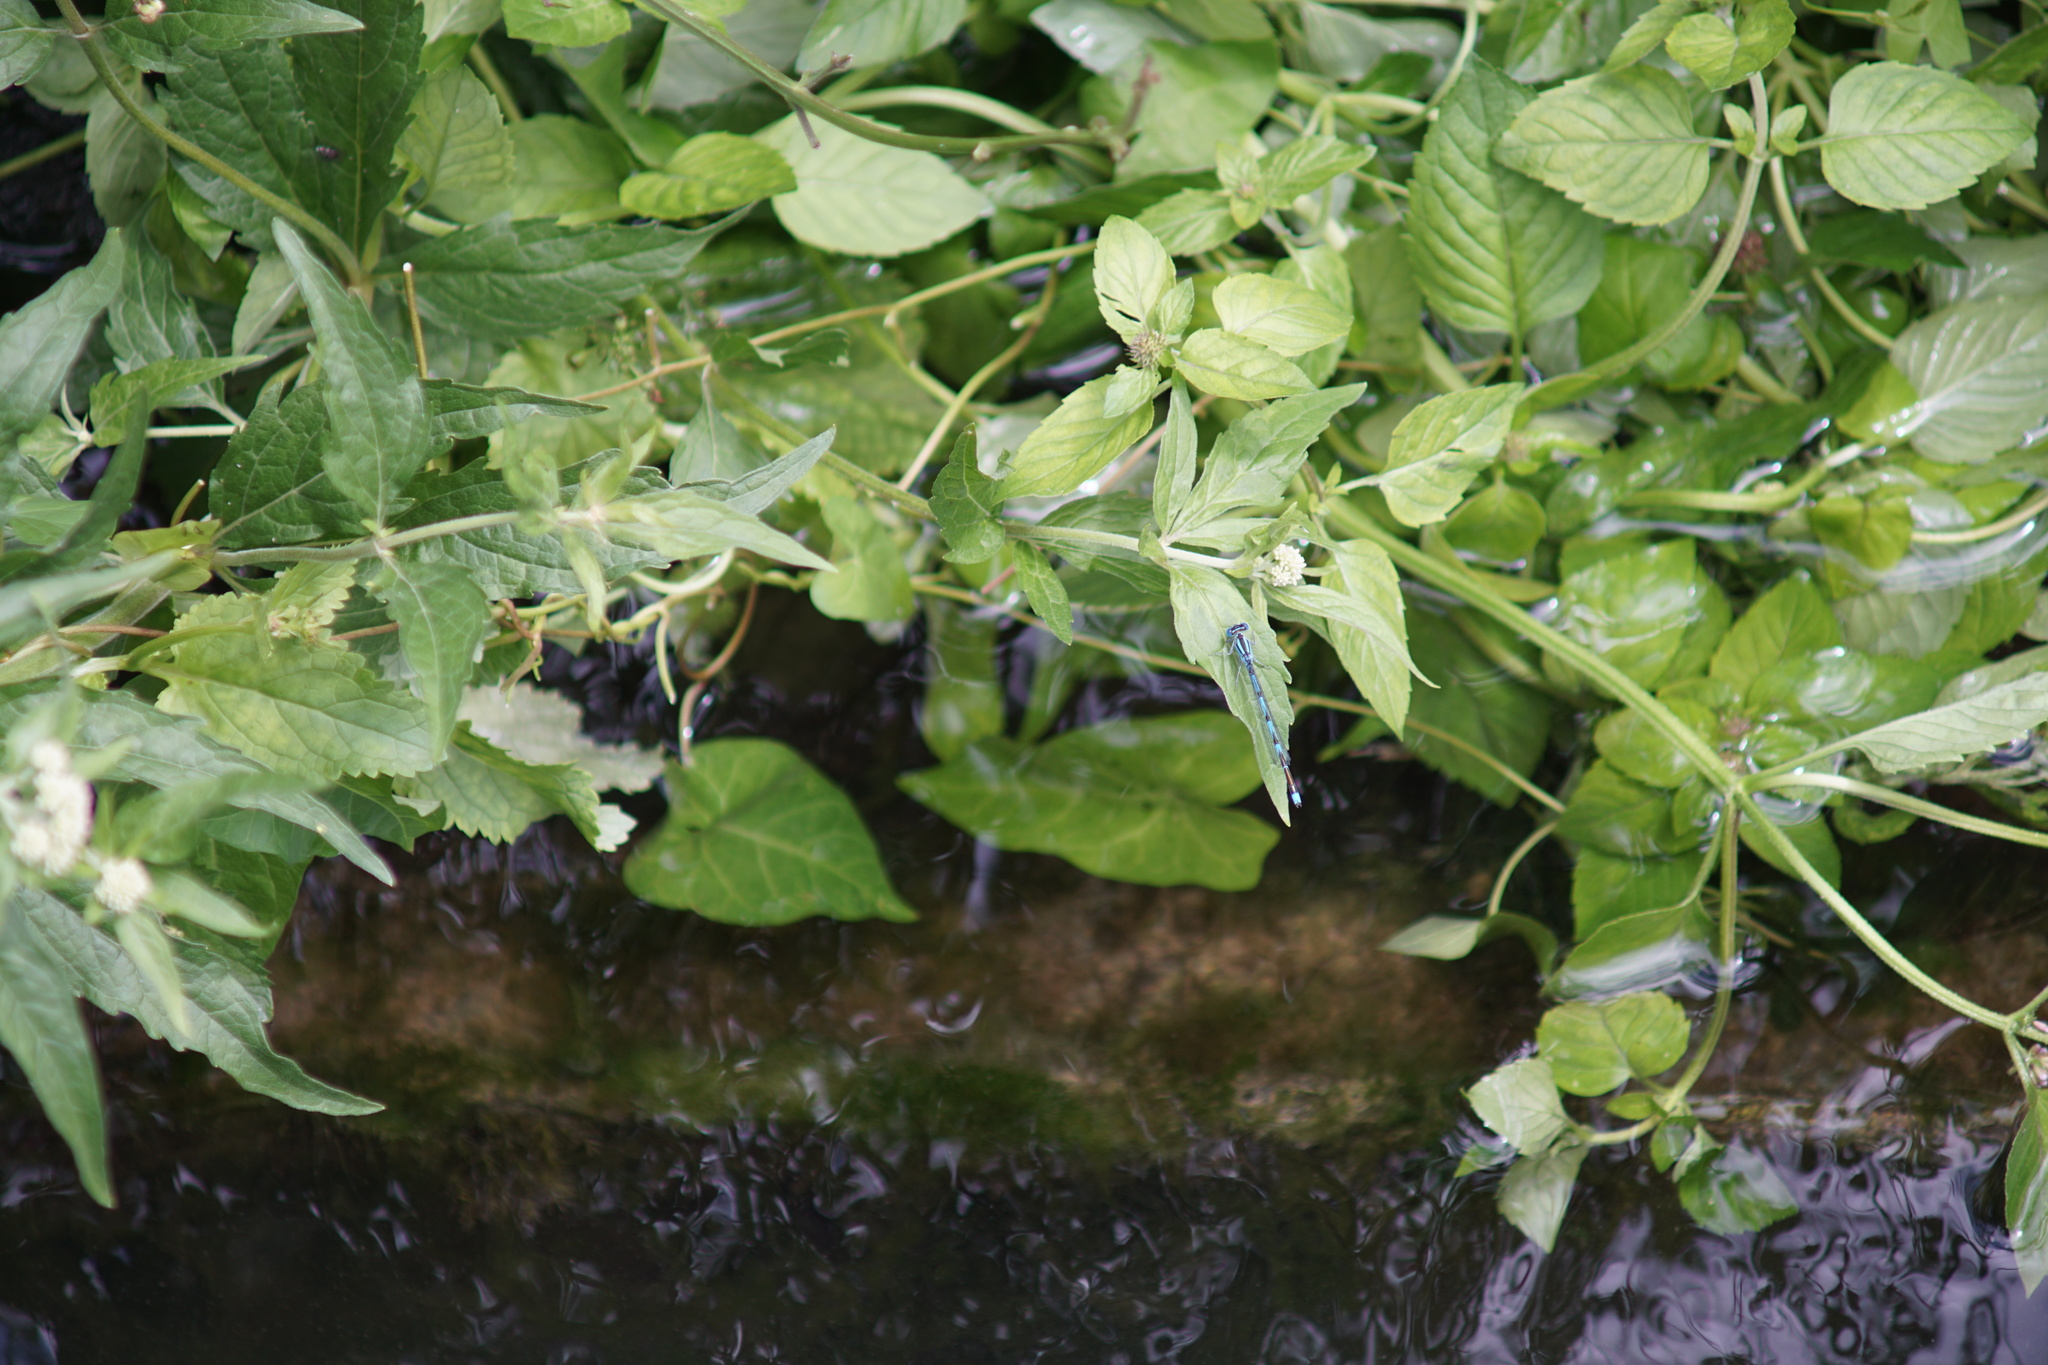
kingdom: Animalia
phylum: Arthropoda
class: Insecta
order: Odonata
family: Coenagrionidae
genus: Erythromma
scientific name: Erythromma lindenii
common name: Blue-eye
